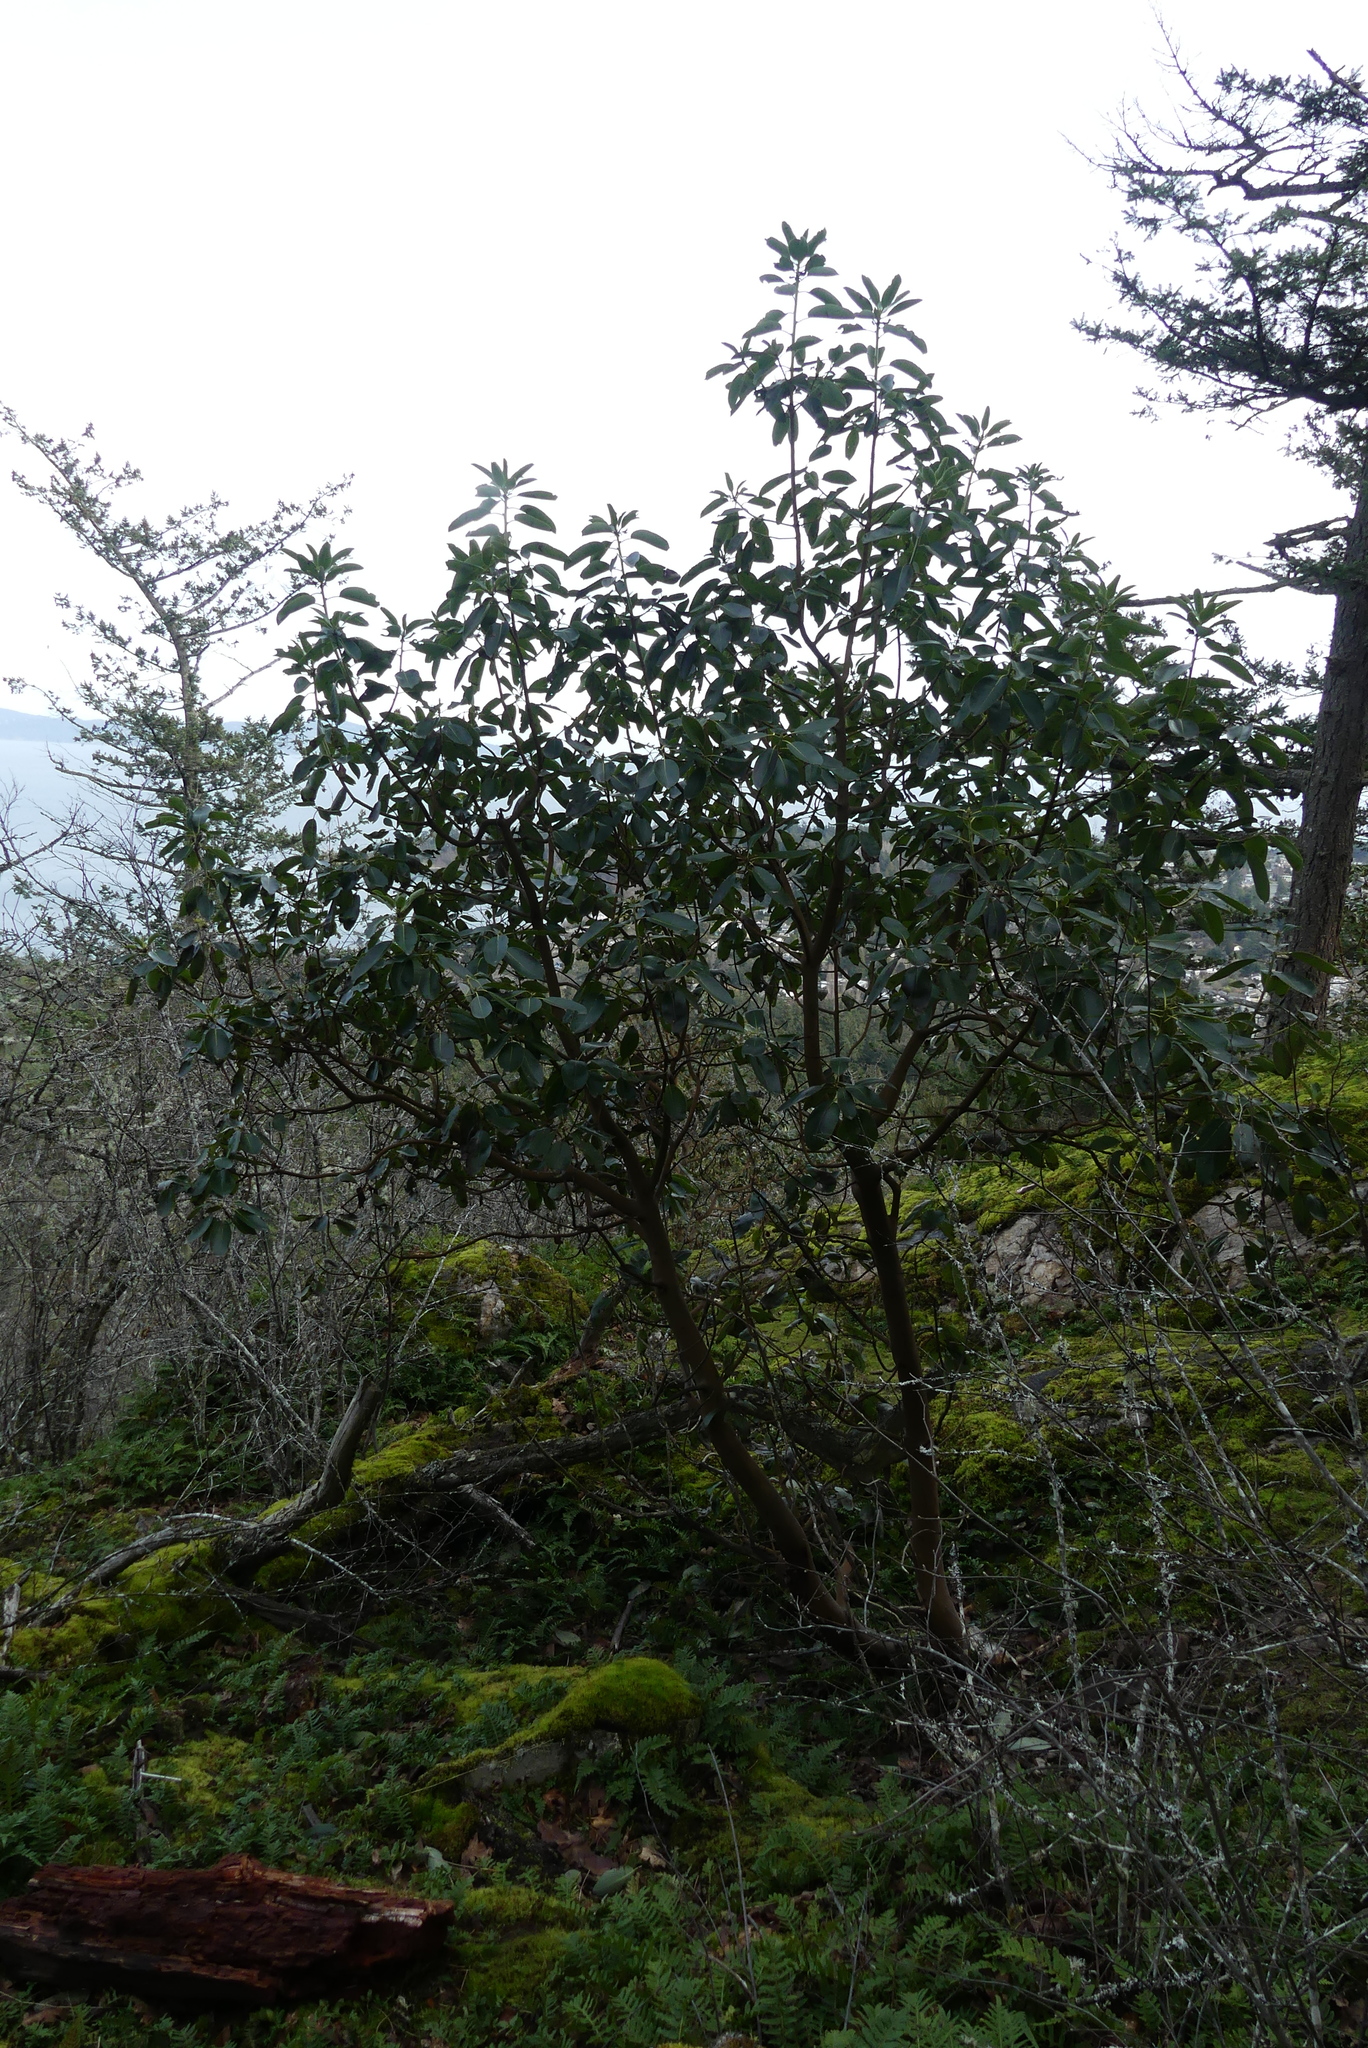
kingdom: Plantae
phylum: Tracheophyta
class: Magnoliopsida
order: Ericales
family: Ericaceae
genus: Arbutus
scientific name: Arbutus menziesii
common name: Pacific madrone
